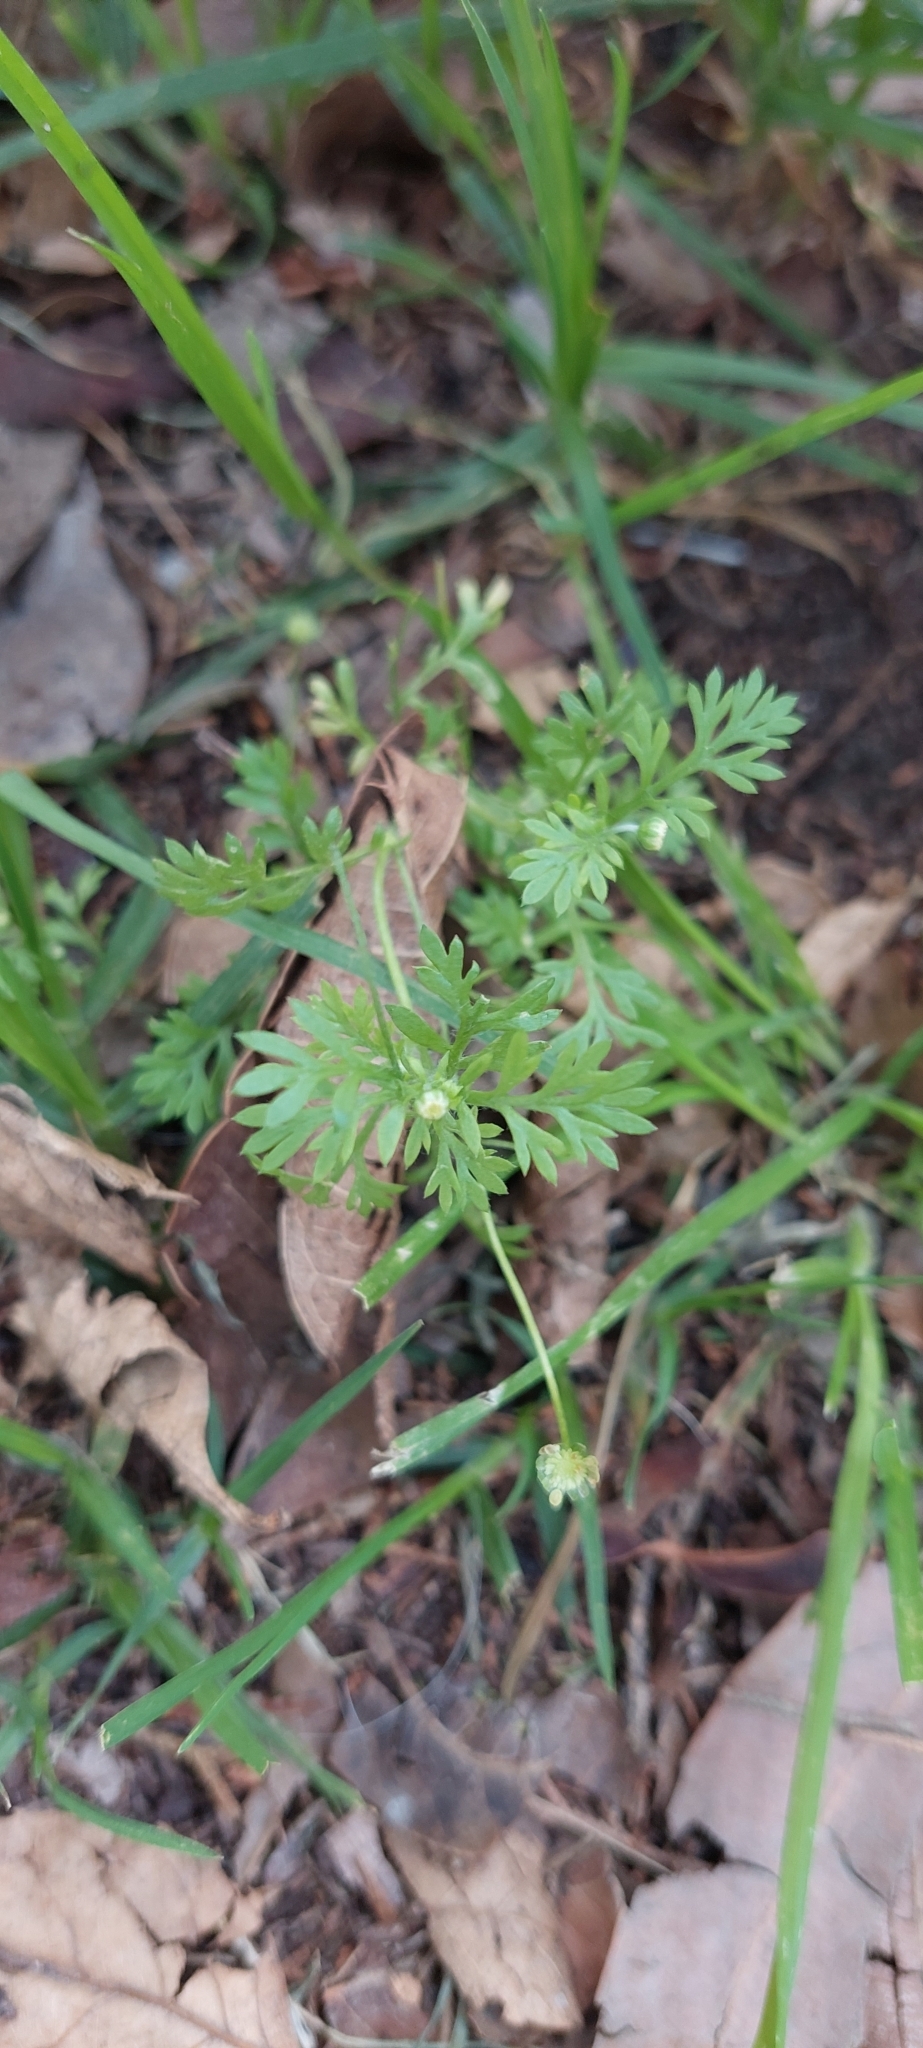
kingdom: Plantae
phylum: Tracheophyta
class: Magnoliopsida
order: Asterales
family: Asteraceae
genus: Cotula
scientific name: Cotula australis
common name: Australian waterbuttons
